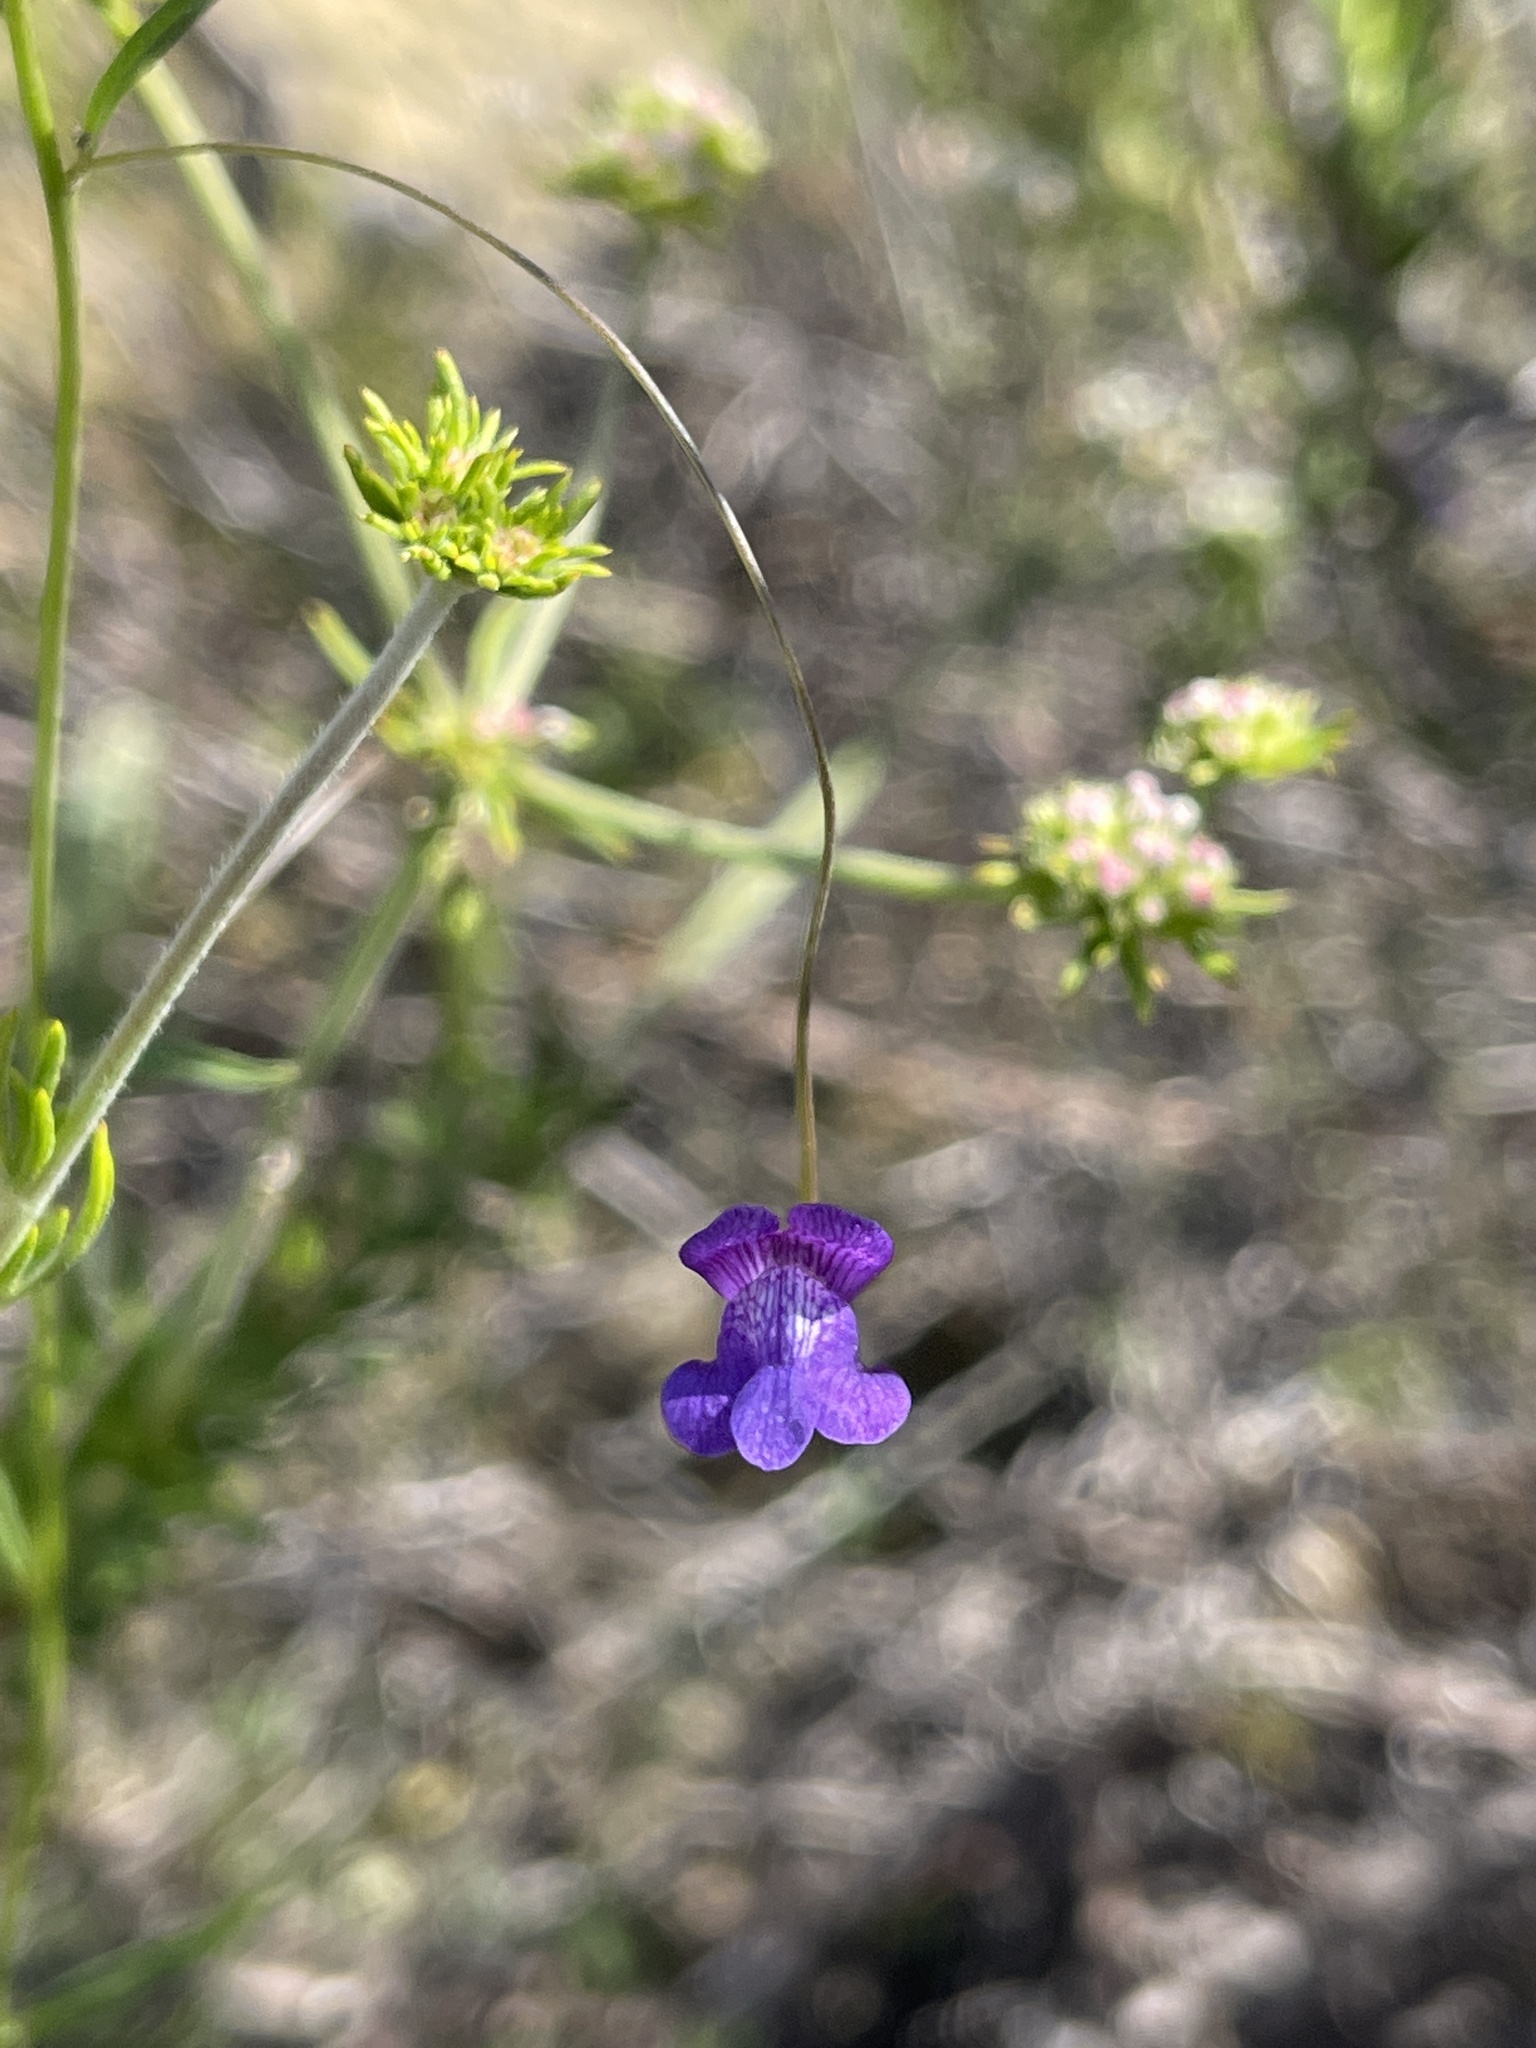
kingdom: Plantae
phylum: Tracheophyta
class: Magnoliopsida
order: Lamiales
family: Plantaginaceae
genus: Neogaerrhinum
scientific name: Neogaerrhinum strictum
